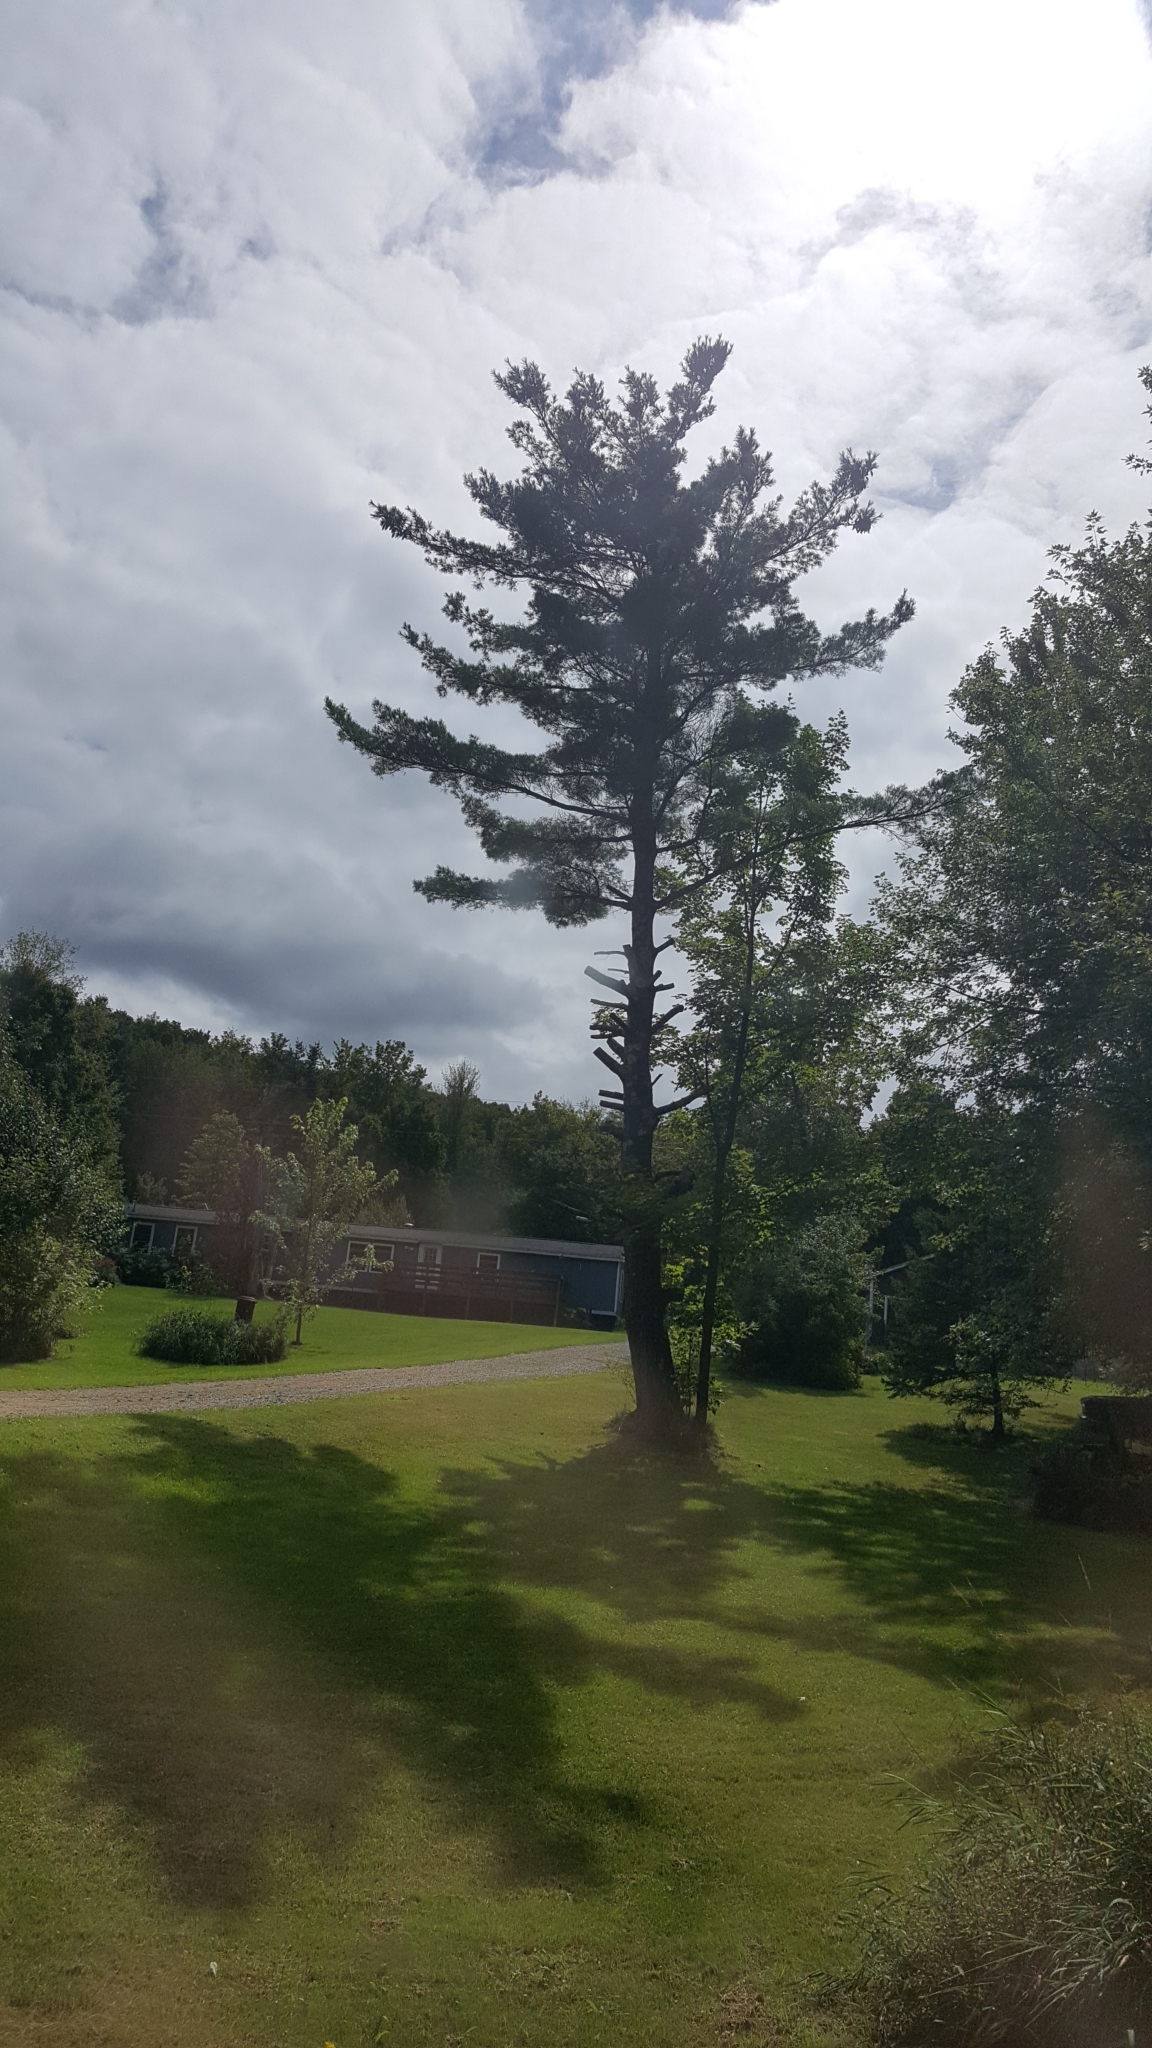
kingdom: Plantae
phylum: Tracheophyta
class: Pinopsida
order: Pinales
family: Pinaceae
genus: Pinus
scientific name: Pinus strobus
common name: Weymouth pine
